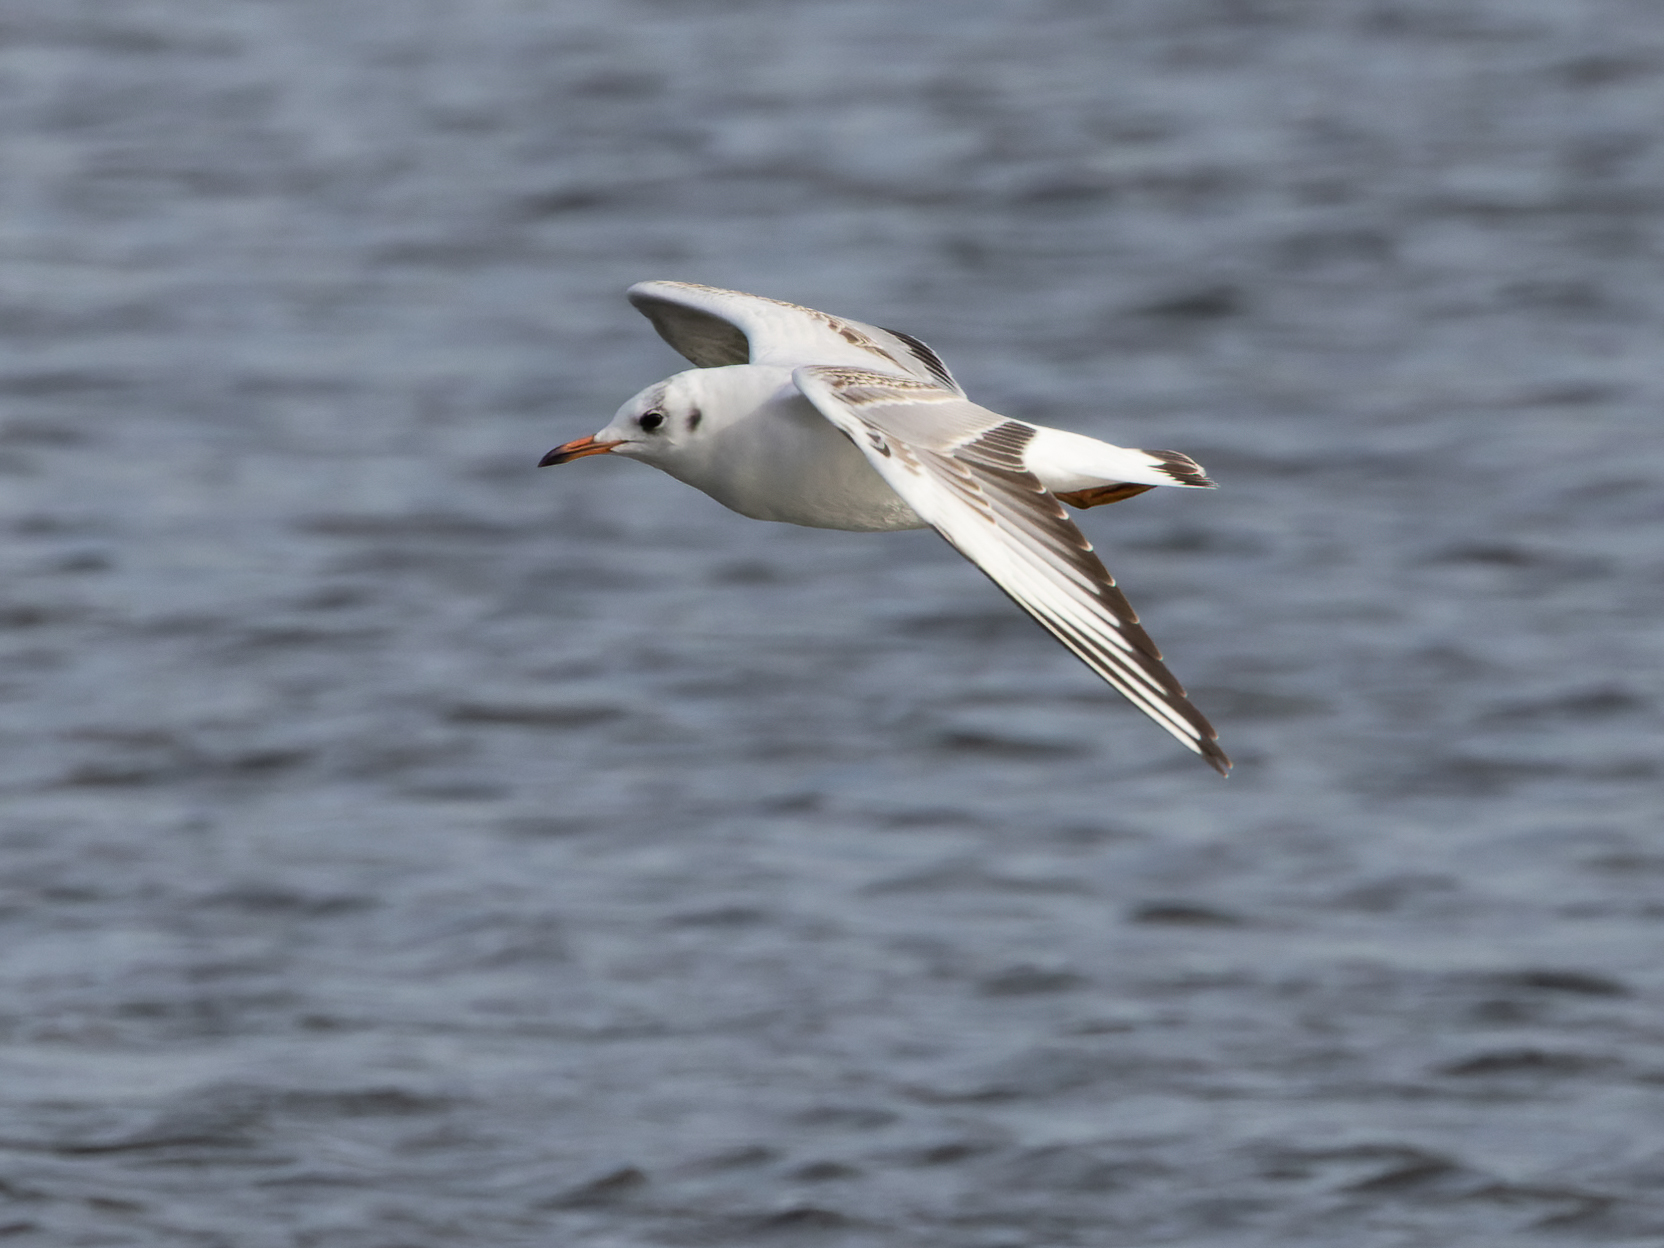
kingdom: Animalia
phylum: Chordata
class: Aves
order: Charadriiformes
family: Laridae
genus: Chroicocephalus
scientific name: Chroicocephalus ridibundus
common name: Black-headed gull
